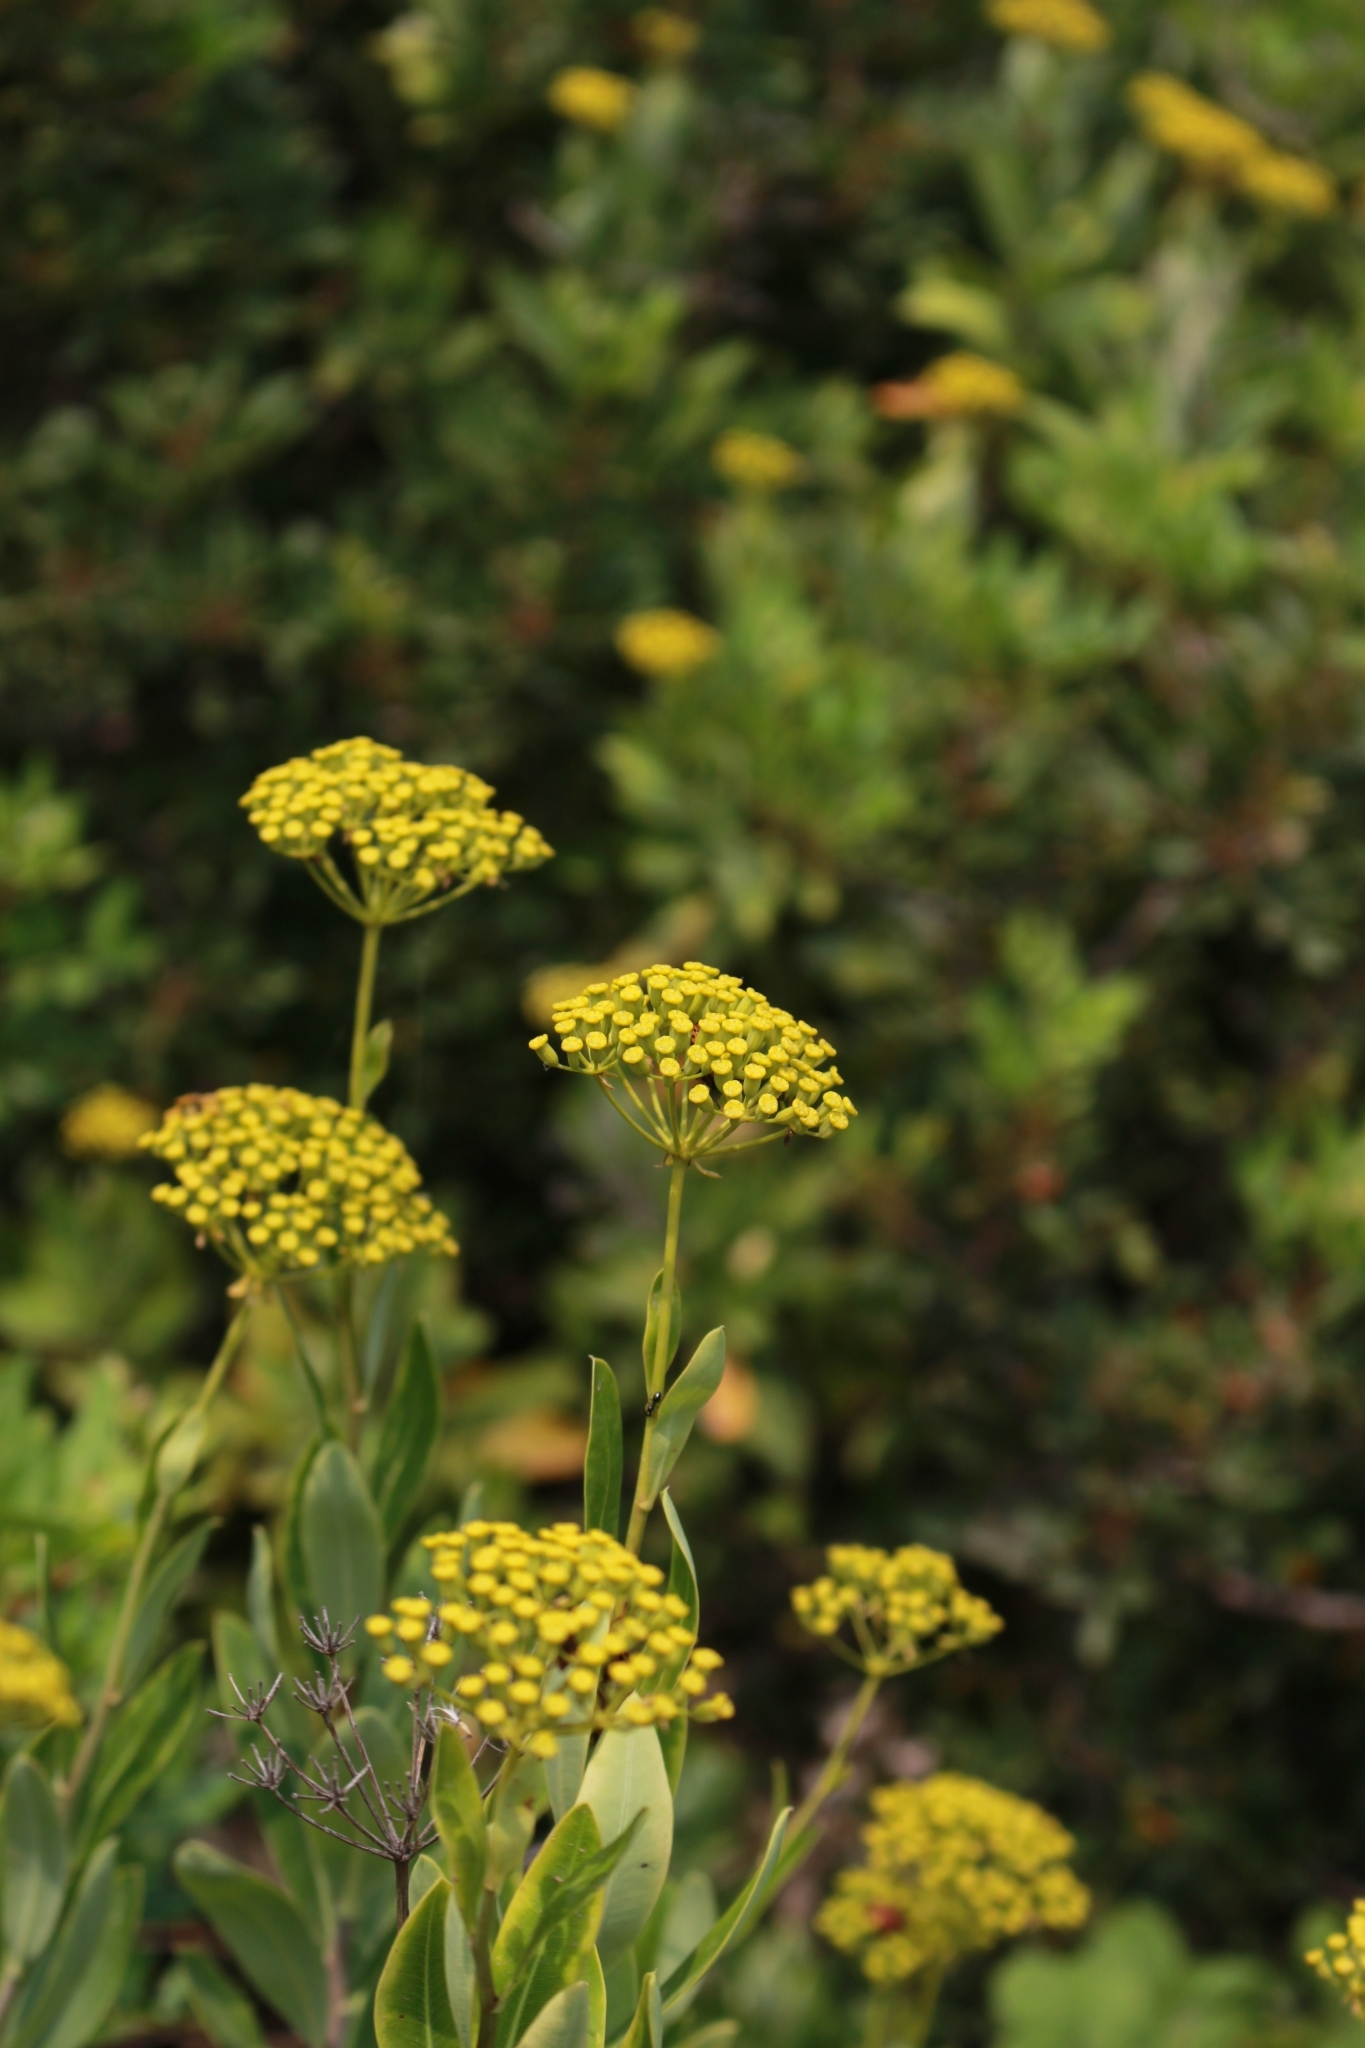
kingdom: Plantae
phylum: Tracheophyta
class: Magnoliopsida
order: Apiales
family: Apiaceae
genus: Bupleurum
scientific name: Bupleurum fruticosum
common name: Shrubby hare's-ear
